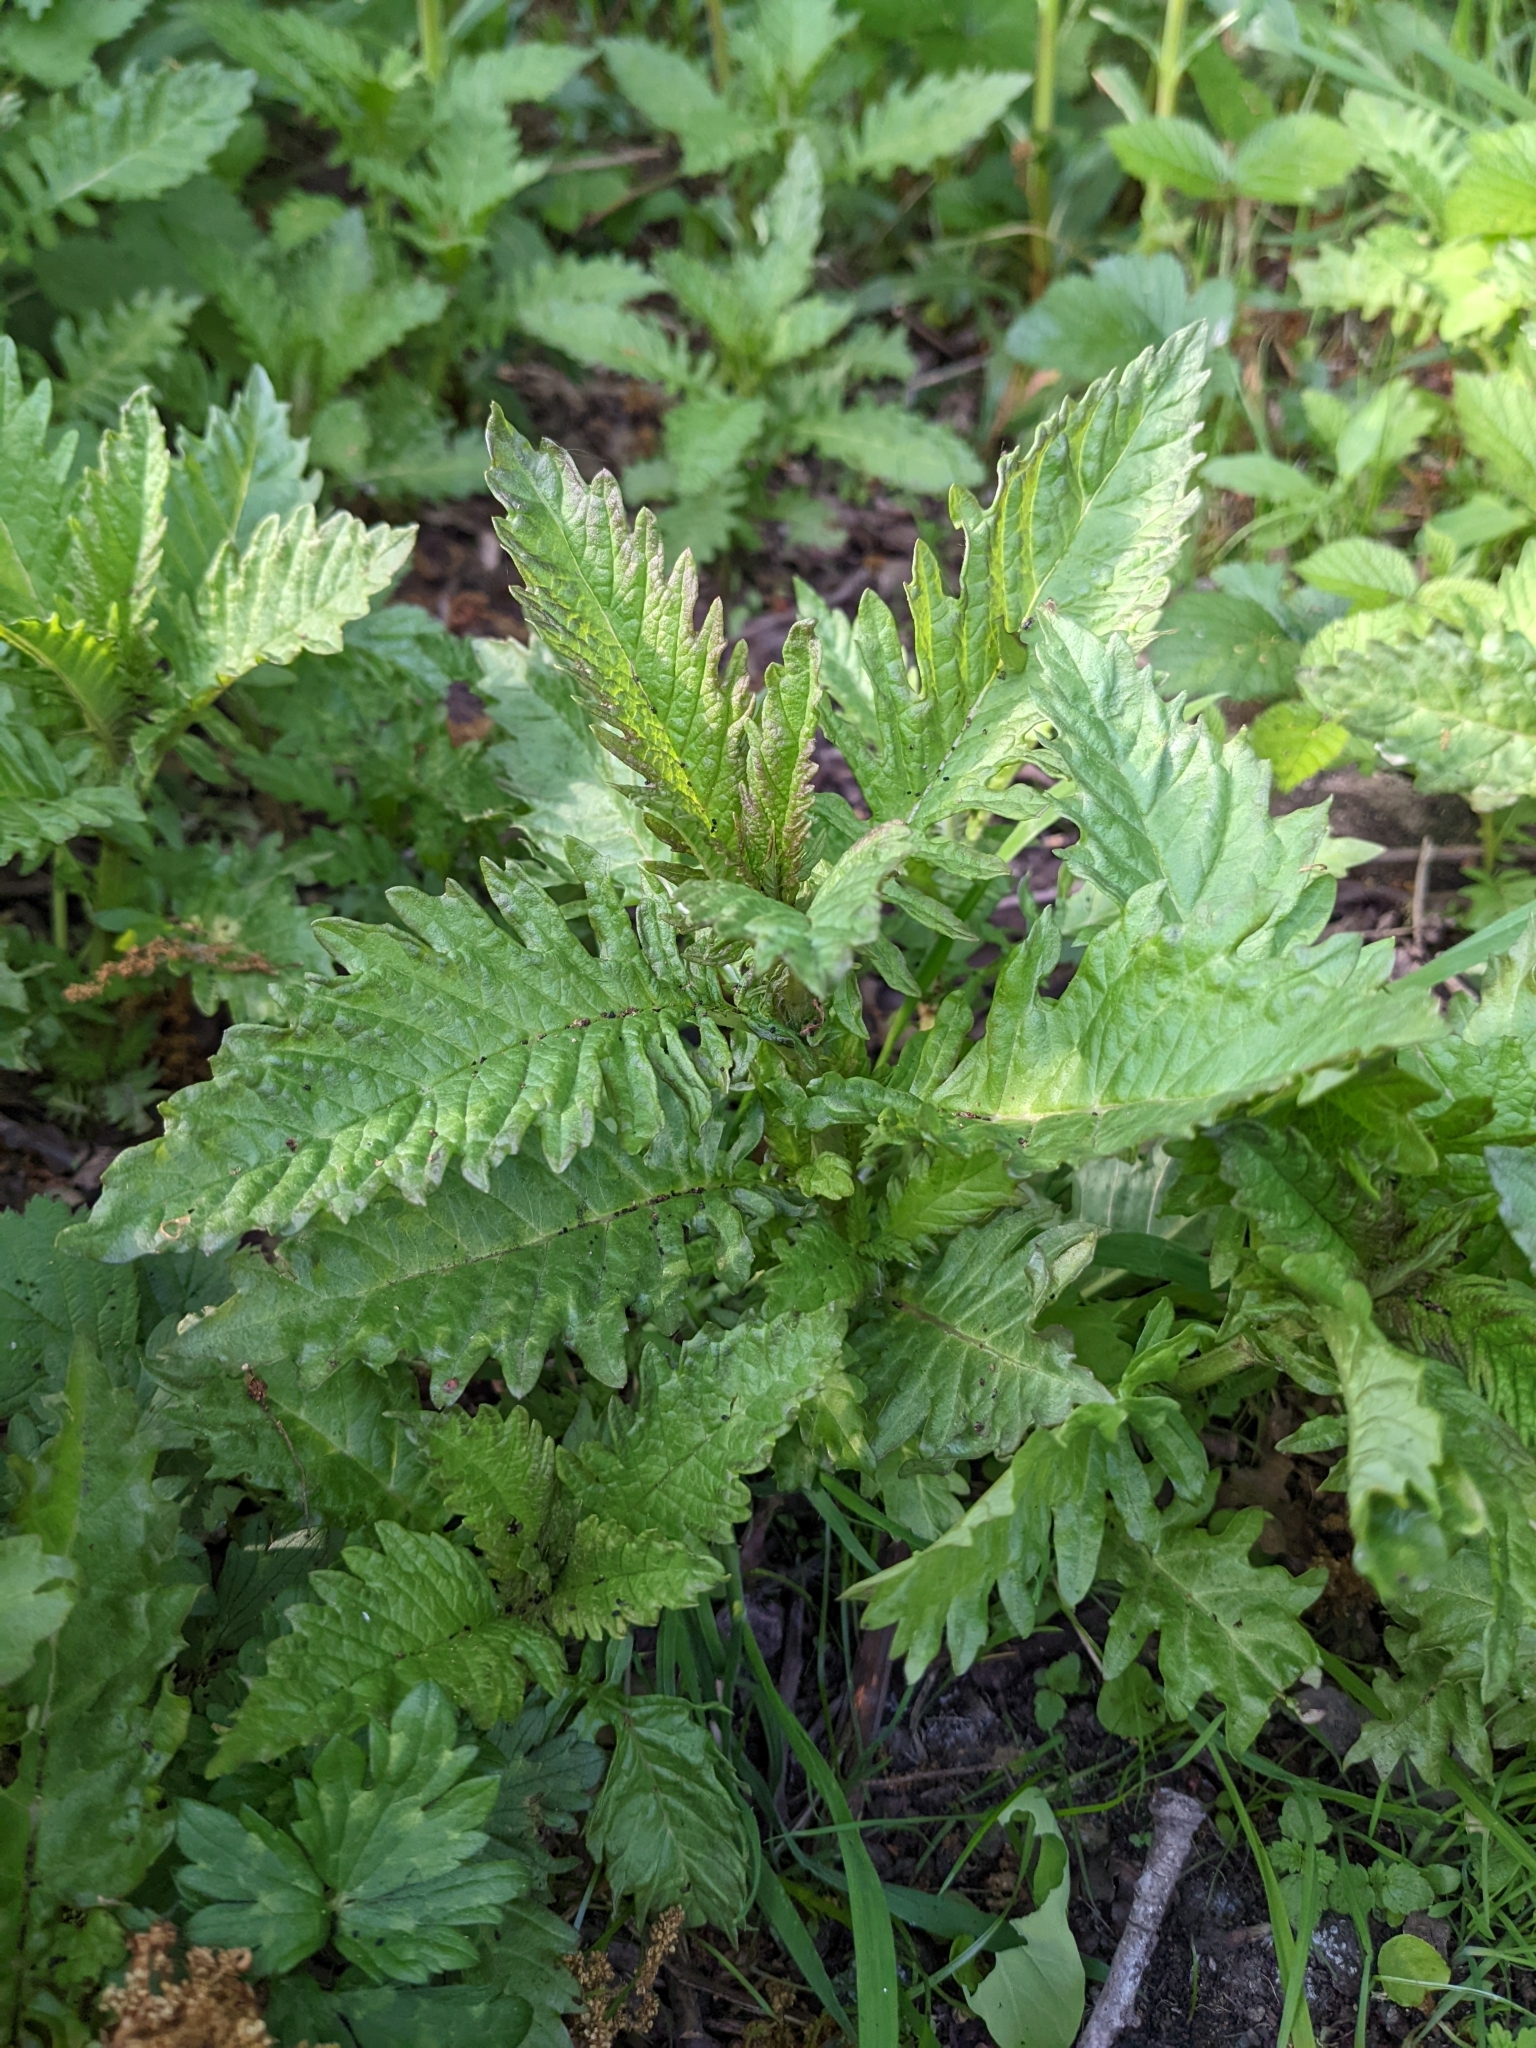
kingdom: Plantae
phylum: Tracheophyta
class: Magnoliopsida
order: Lamiales
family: Lamiaceae
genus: Lycopus
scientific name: Lycopus europaeus
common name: European bugleweed
